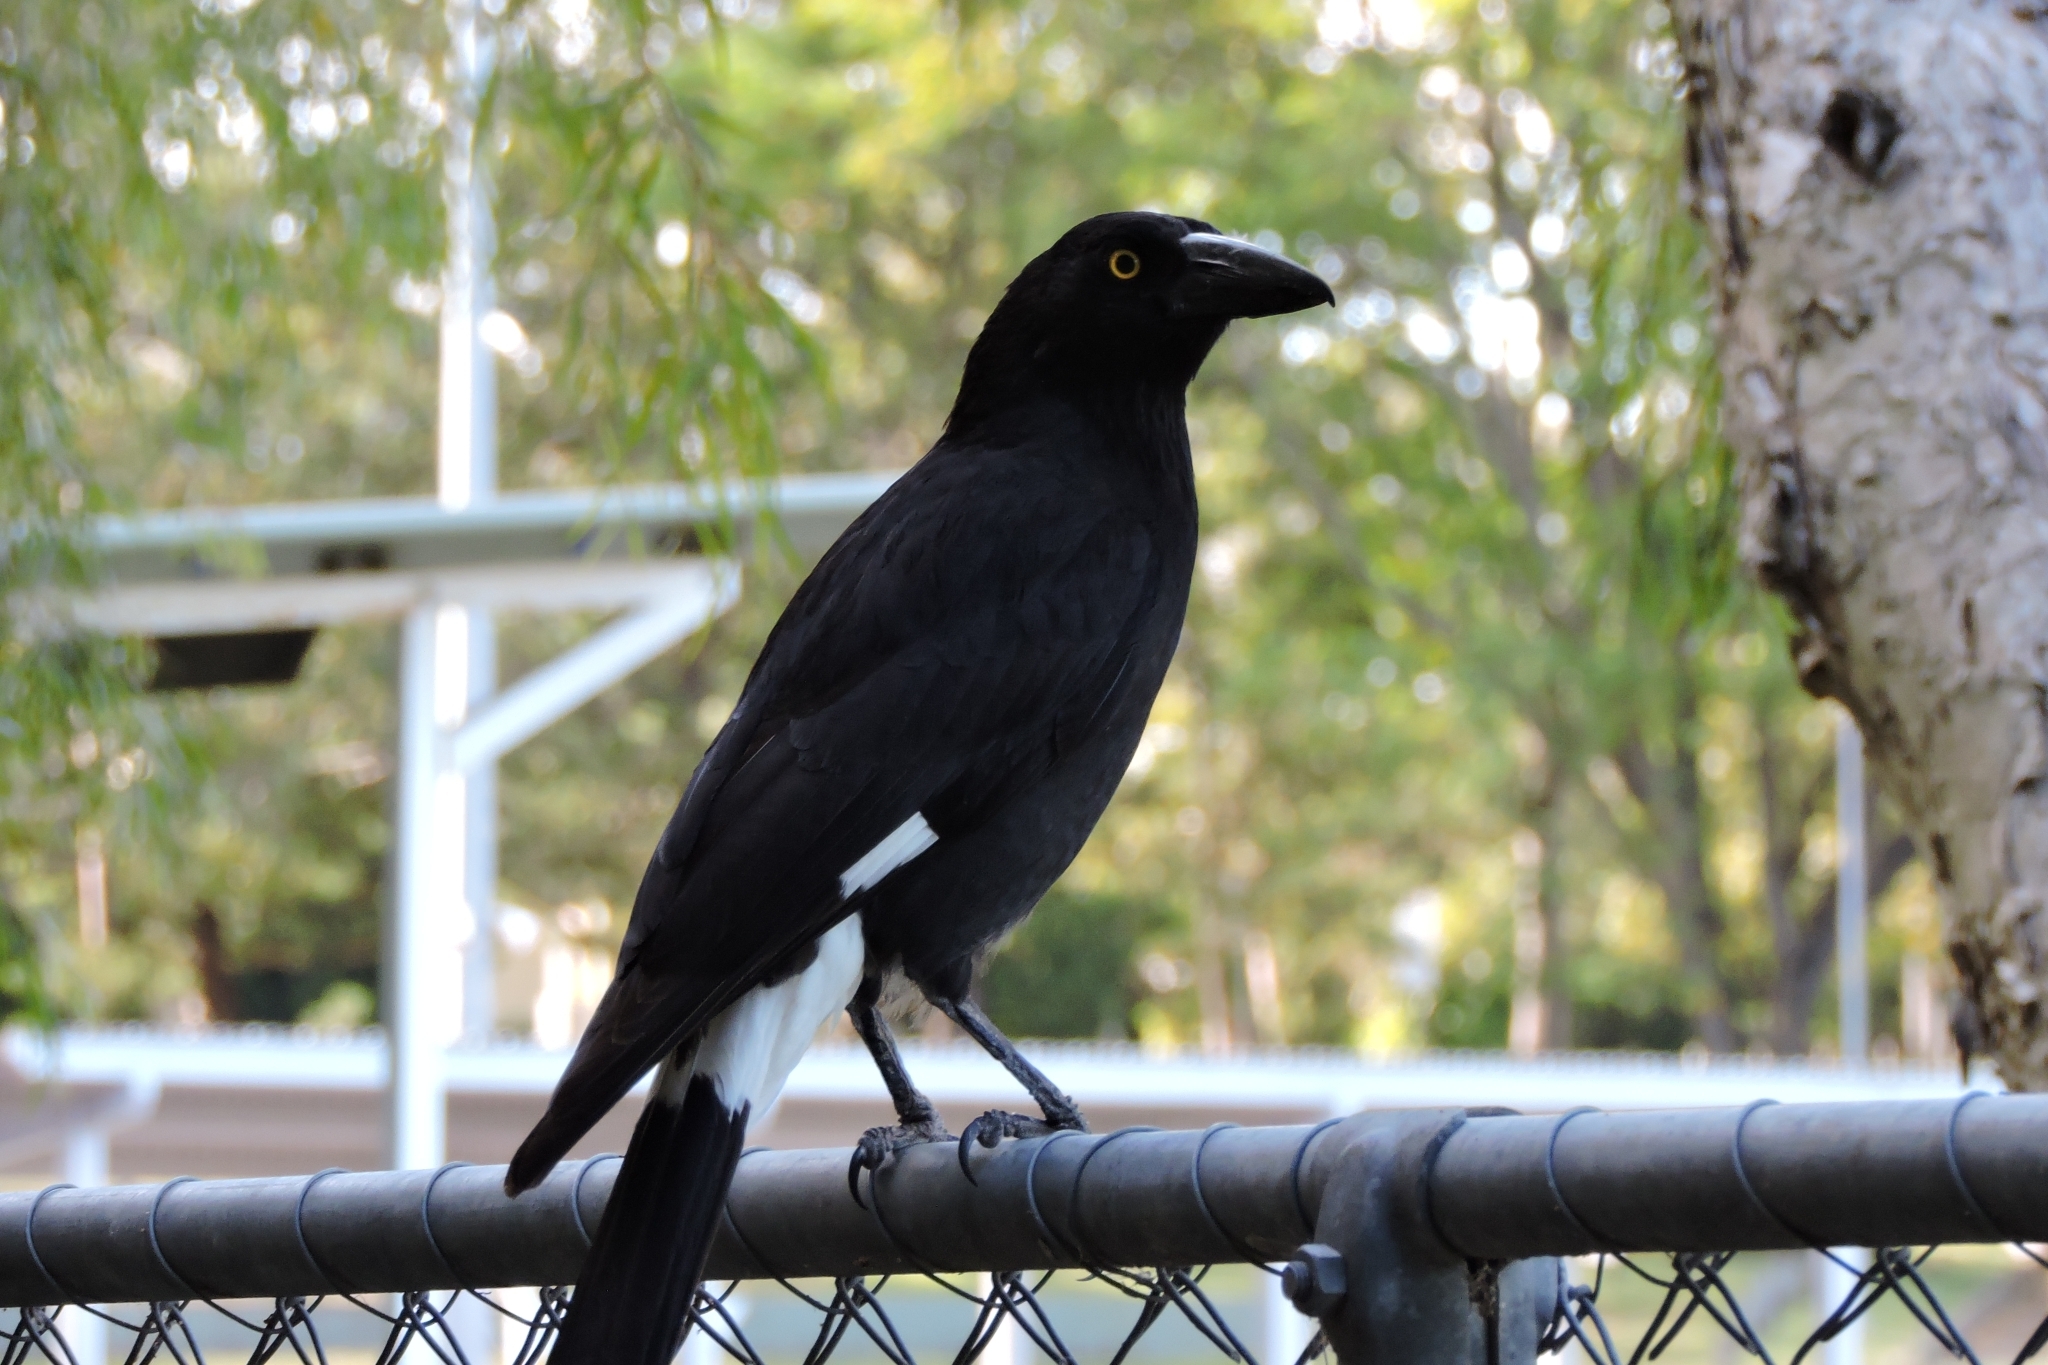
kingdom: Animalia
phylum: Chordata
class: Aves
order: Passeriformes
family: Cracticidae
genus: Strepera
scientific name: Strepera graculina
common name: Pied currawong
